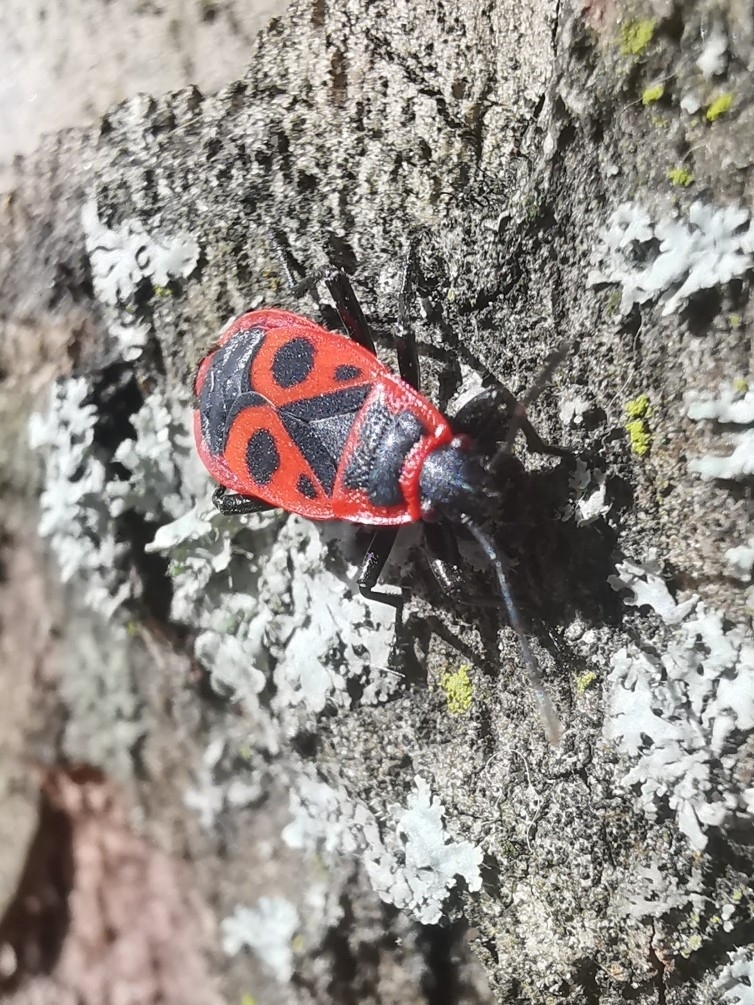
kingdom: Animalia
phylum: Arthropoda
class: Insecta
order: Hemiptera
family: Pyrrhocoridae
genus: Pyrrhocoris
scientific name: Pyrrhocoris apterus
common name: Firebug
